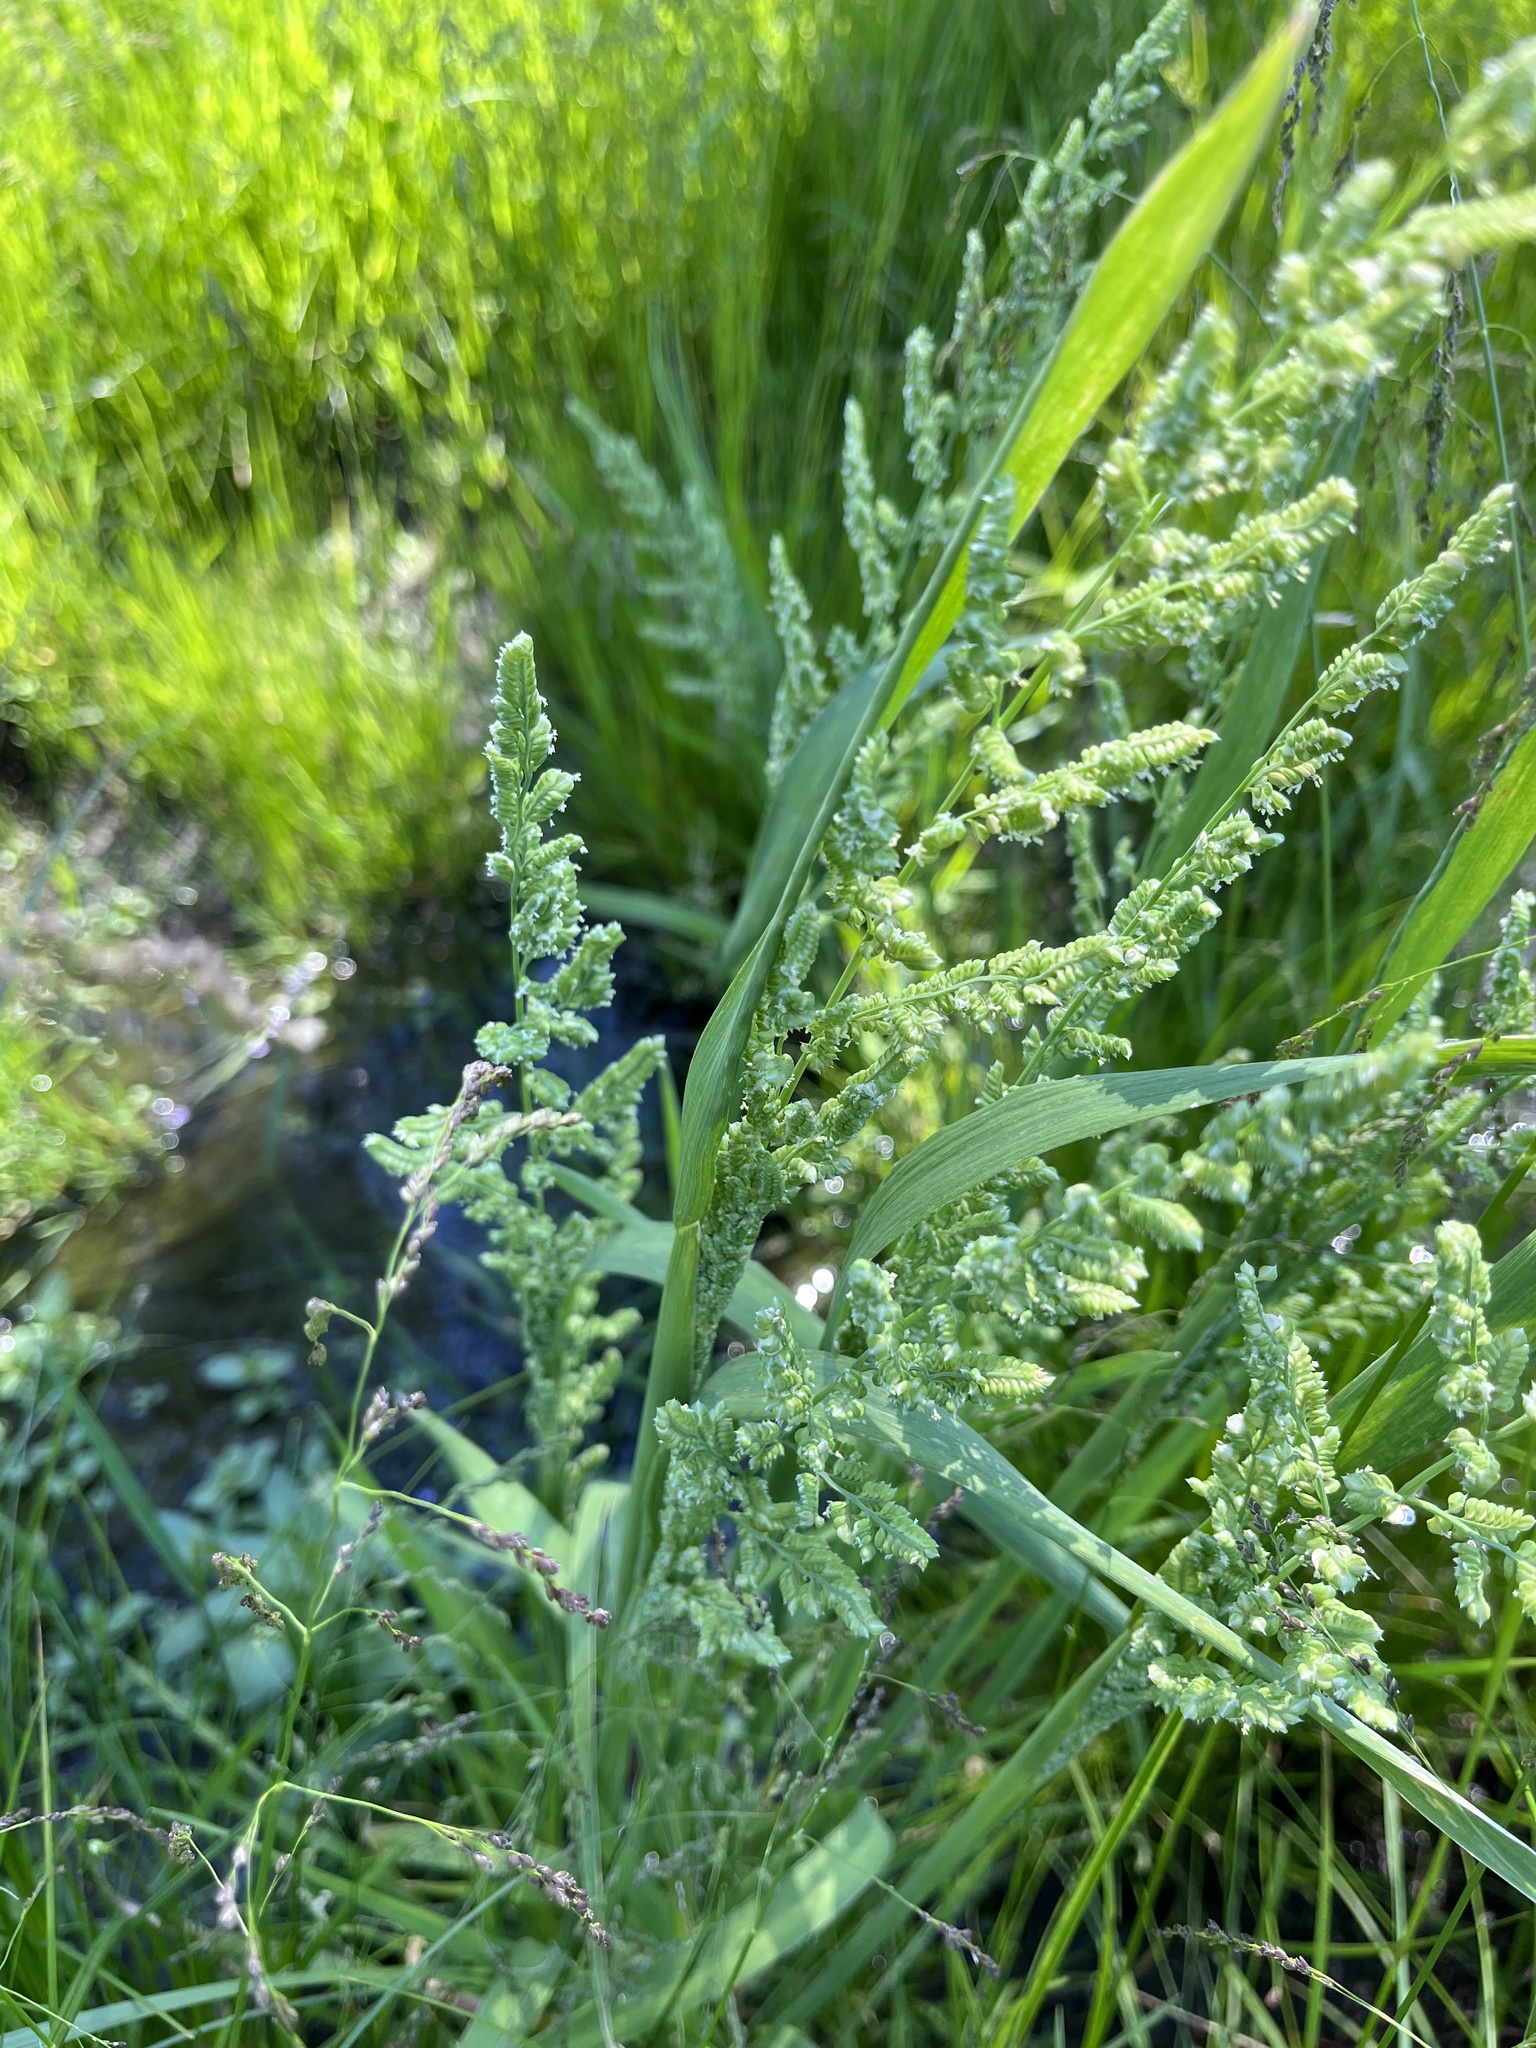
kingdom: Plantae
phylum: Tracheophyta
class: Liliopsida
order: Poales
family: Poaceae
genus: Beckmannia
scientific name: Beckmannia syzigachne
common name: American slough-grass
